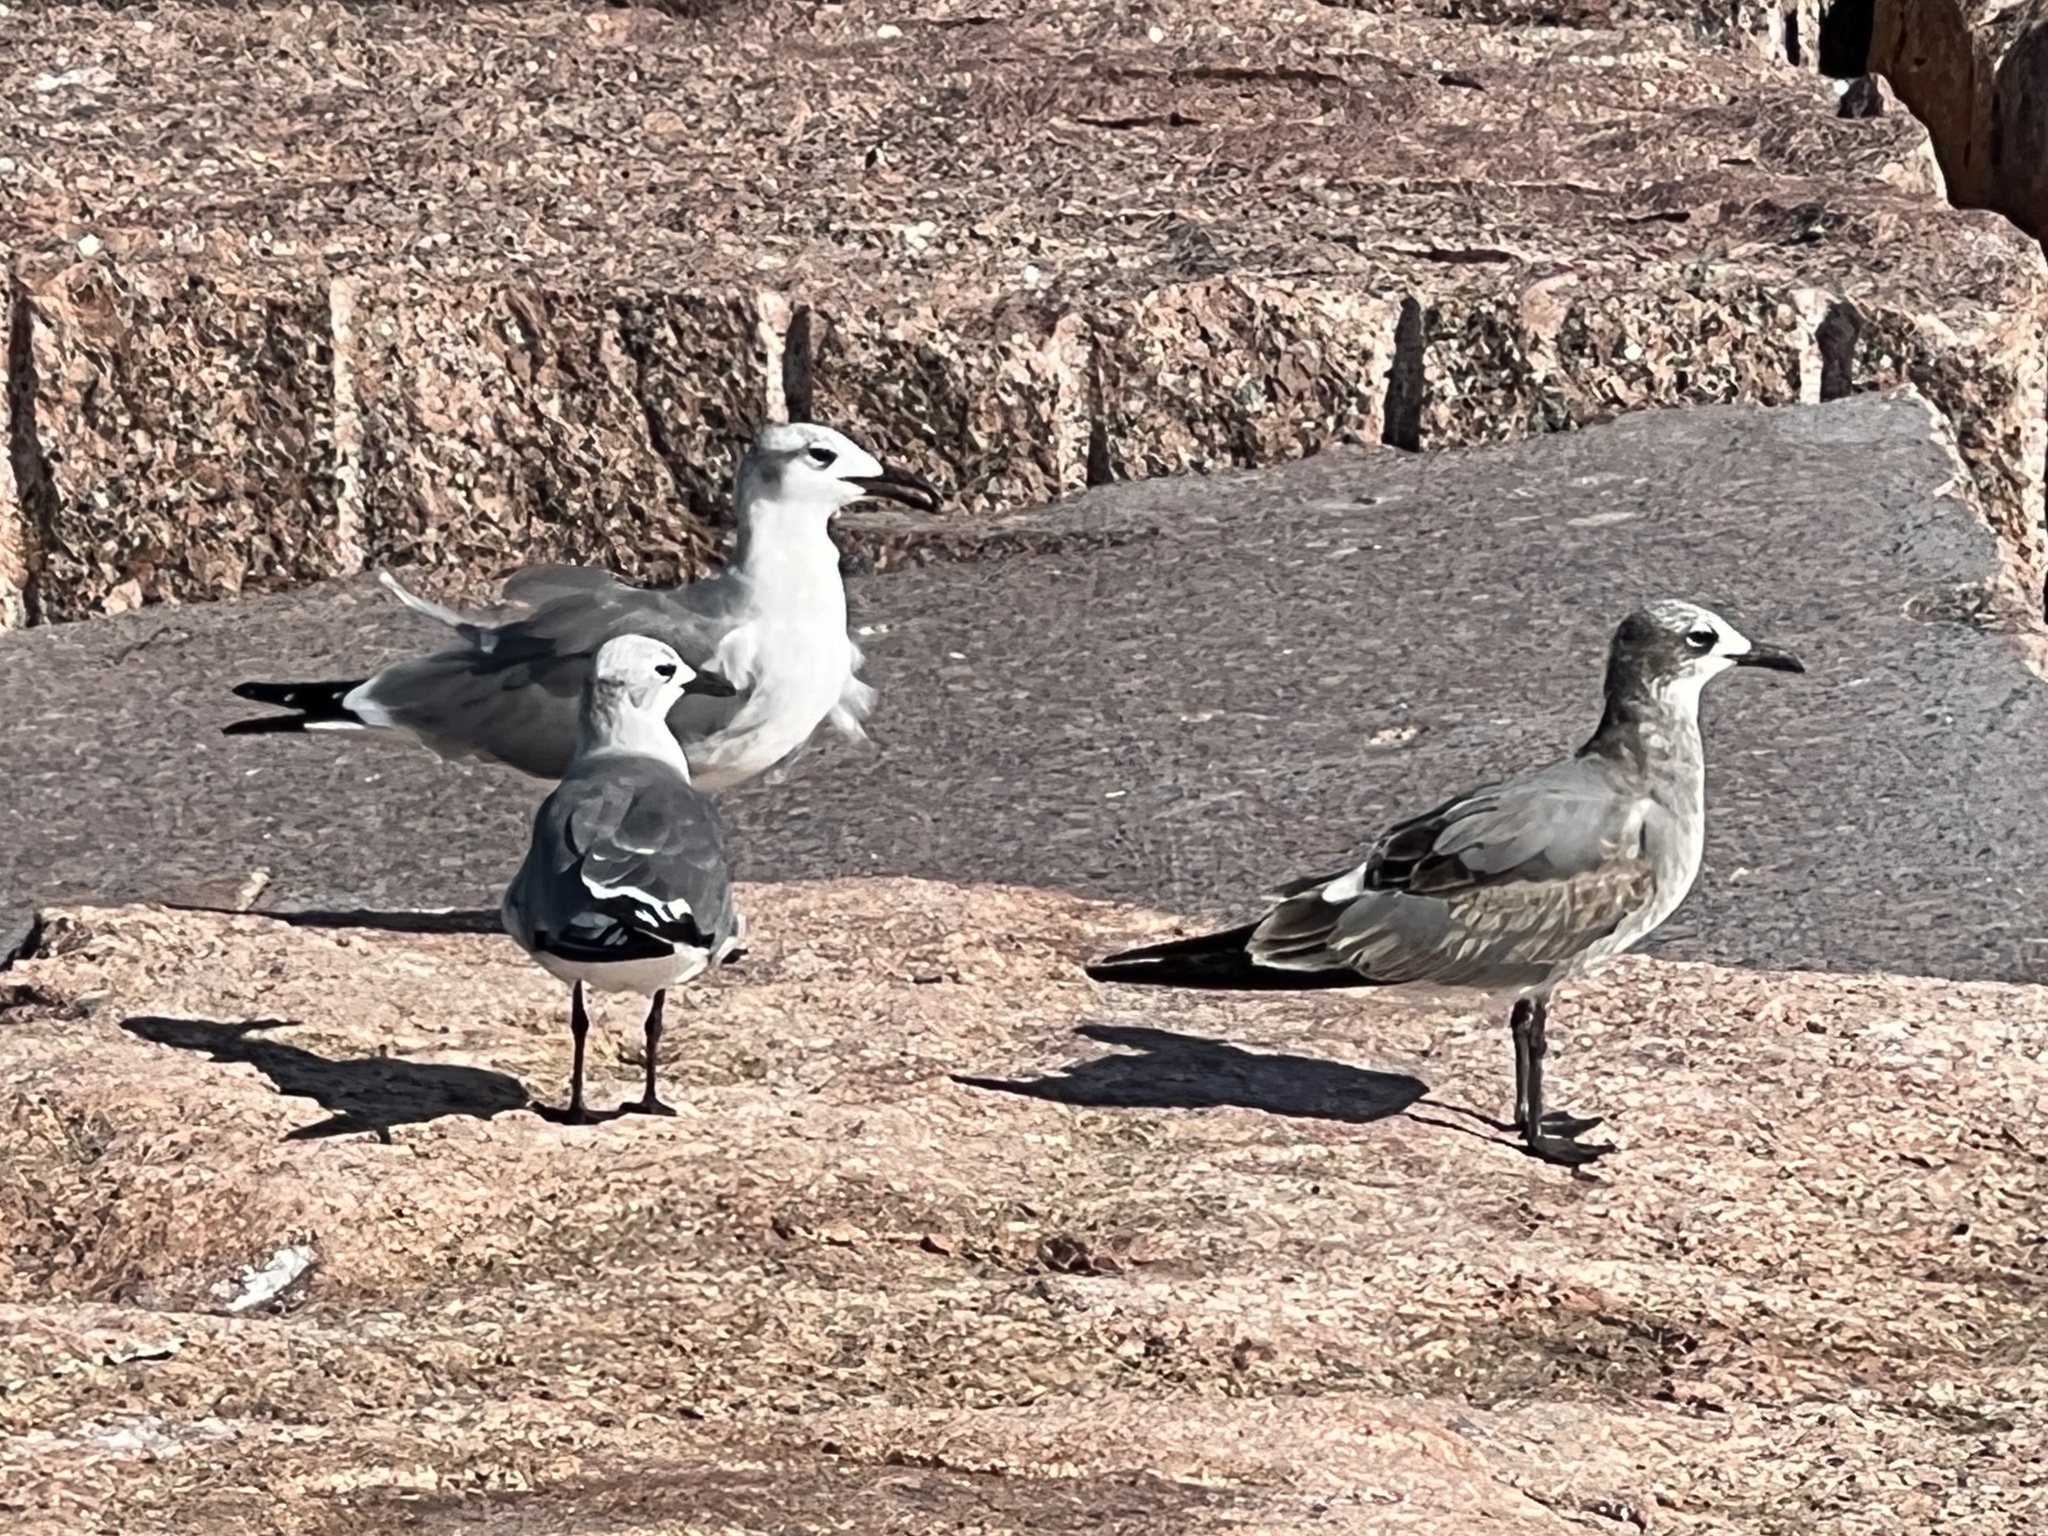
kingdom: Animalia
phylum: Chordata
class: Aves
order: Charadriiformes
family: Laridae
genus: Leucophaeus
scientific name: Leucophaeus atricilla
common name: Laughing gull
